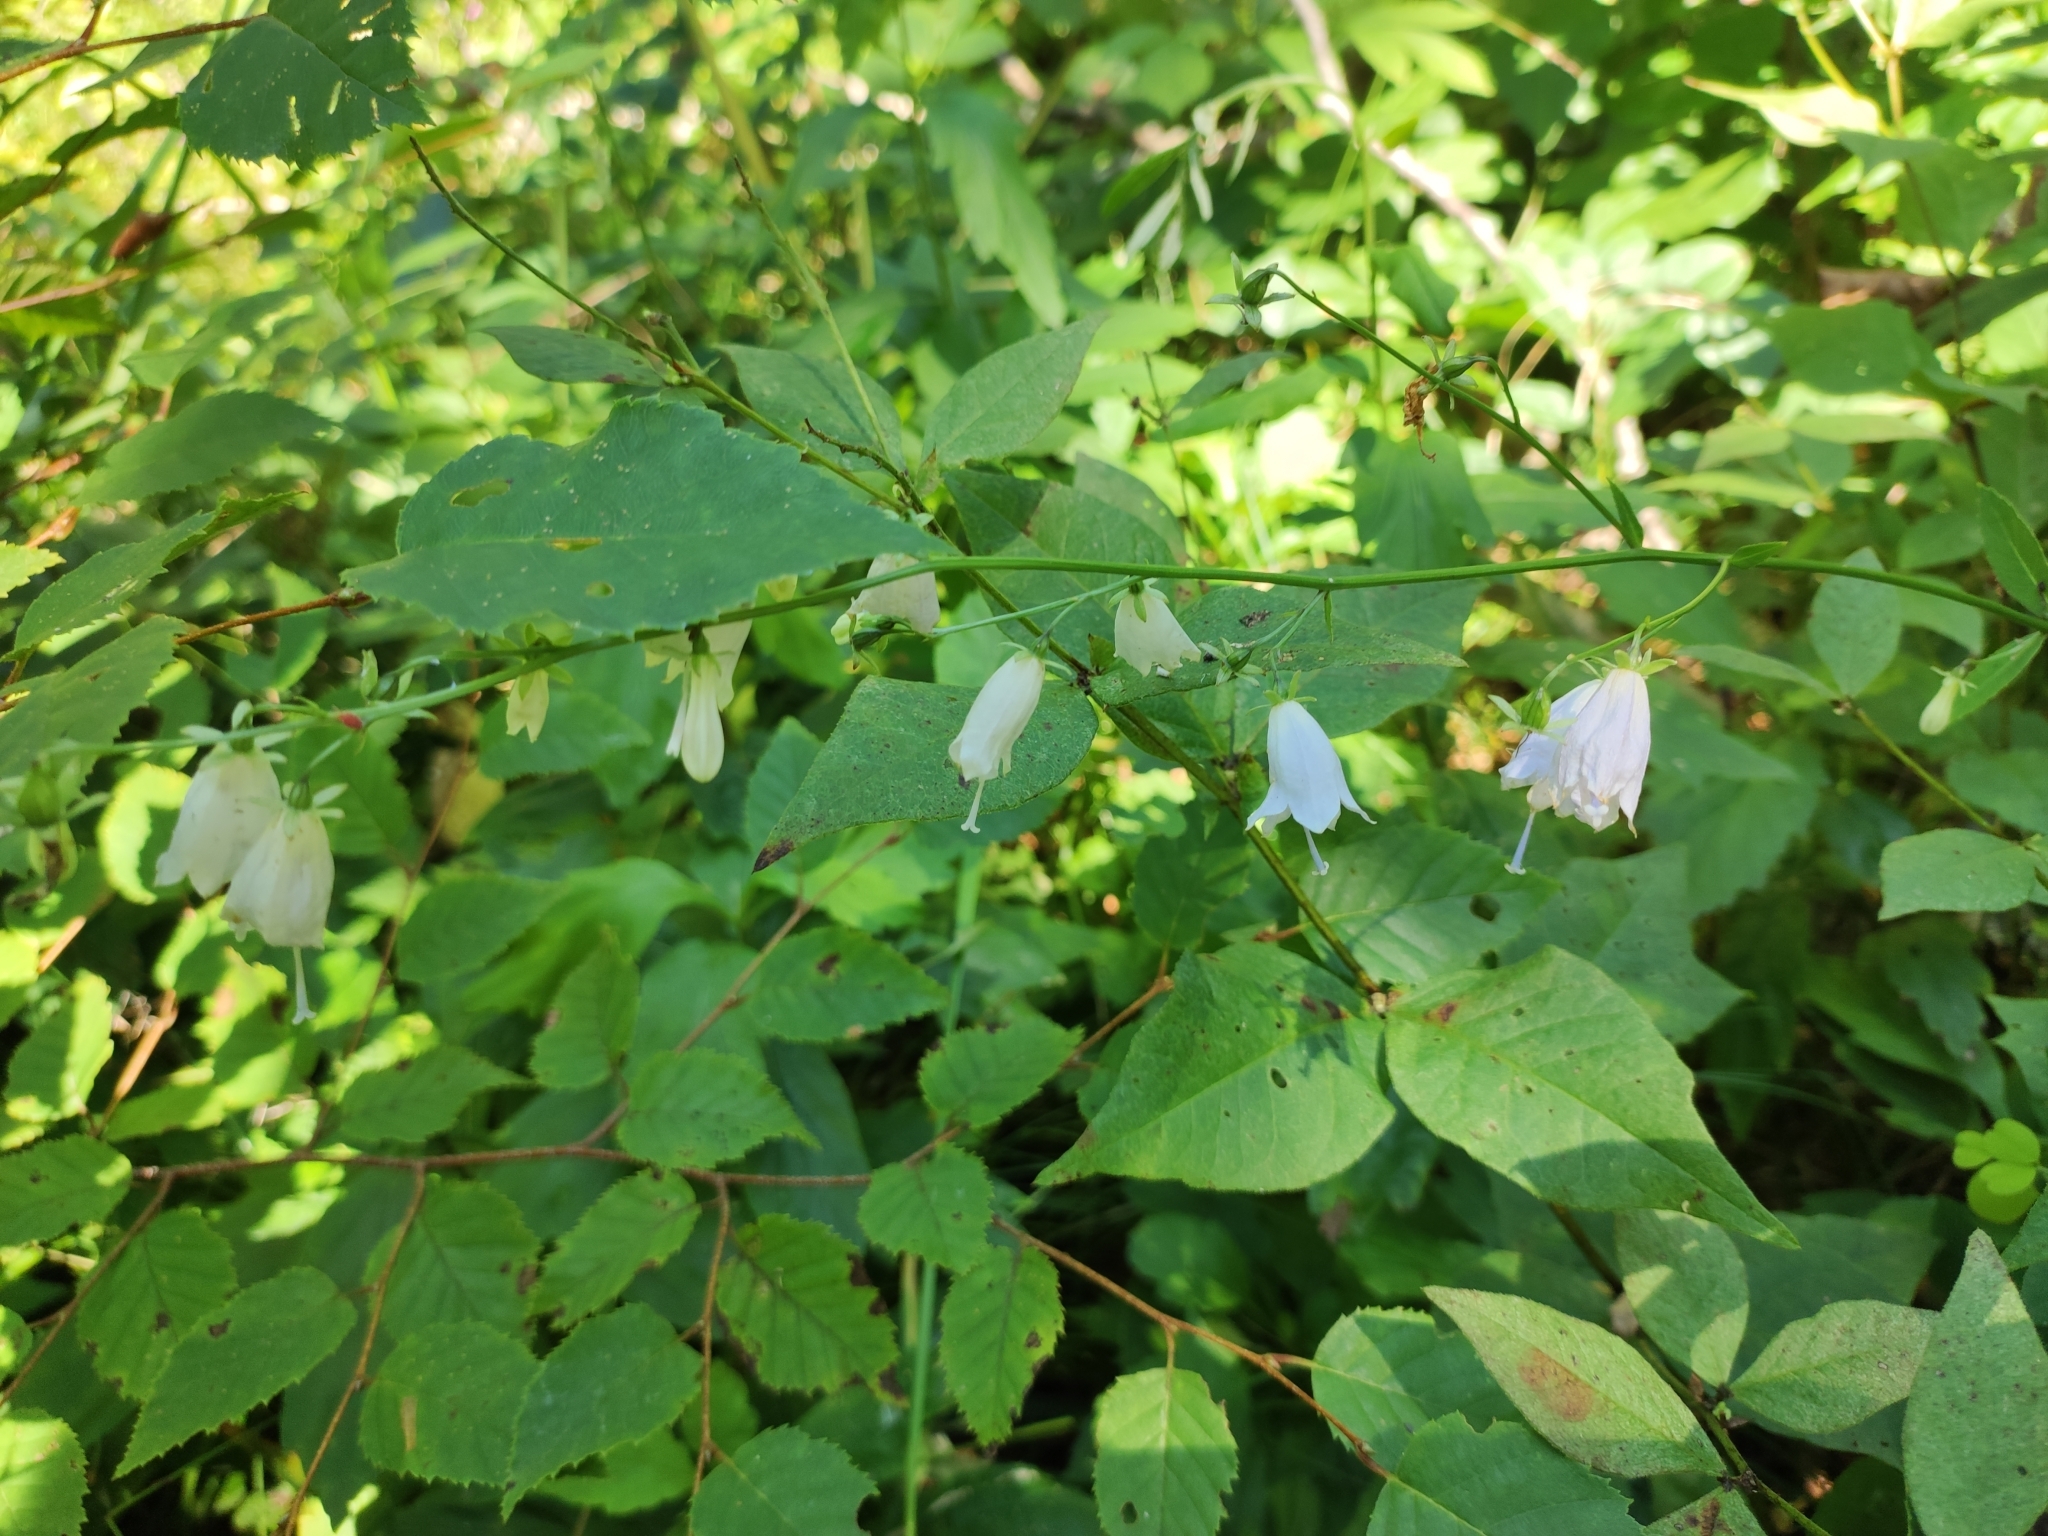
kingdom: Plantae
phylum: Tracheophyta
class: Magnoliopsida
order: Asterales
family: Campanulaceae
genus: Adenophora
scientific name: Adenophora pereskiifolia
